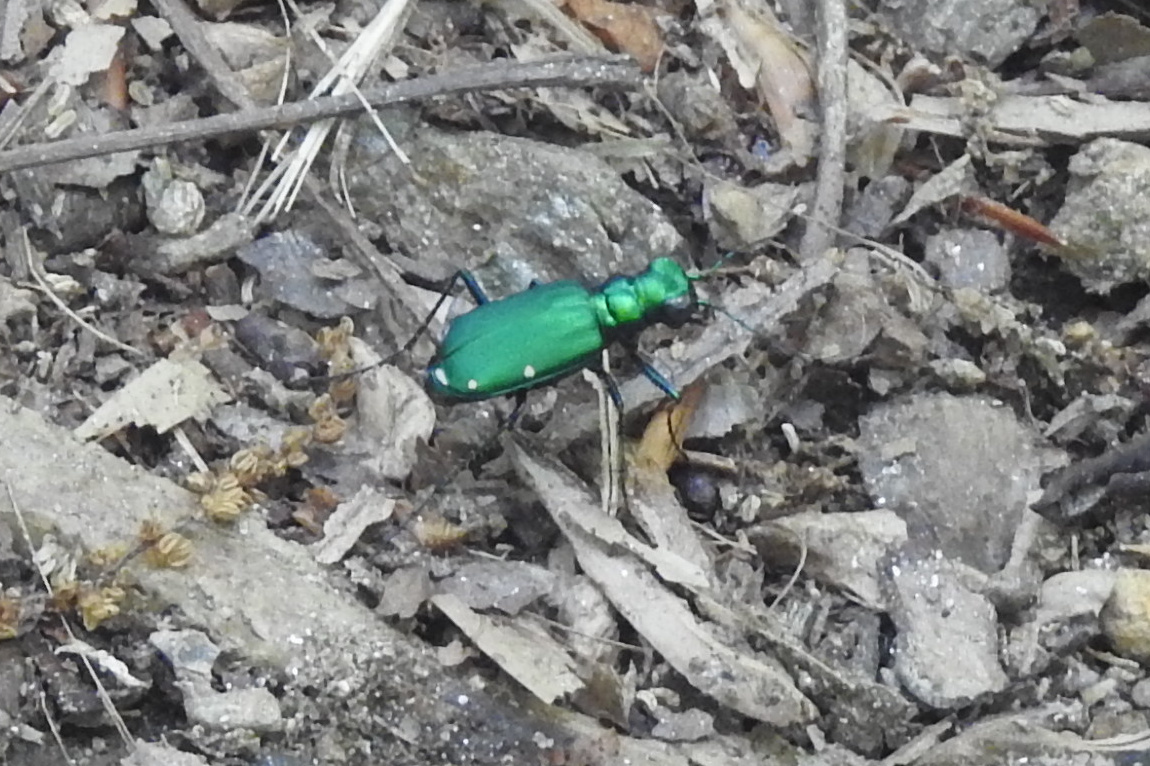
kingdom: Animalia
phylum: Arthropoda
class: Insecta
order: Coleoptera
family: Carabidae
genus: Cicindela
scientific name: Cicindela sexguttata
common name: Six-spotted tiger beetle
